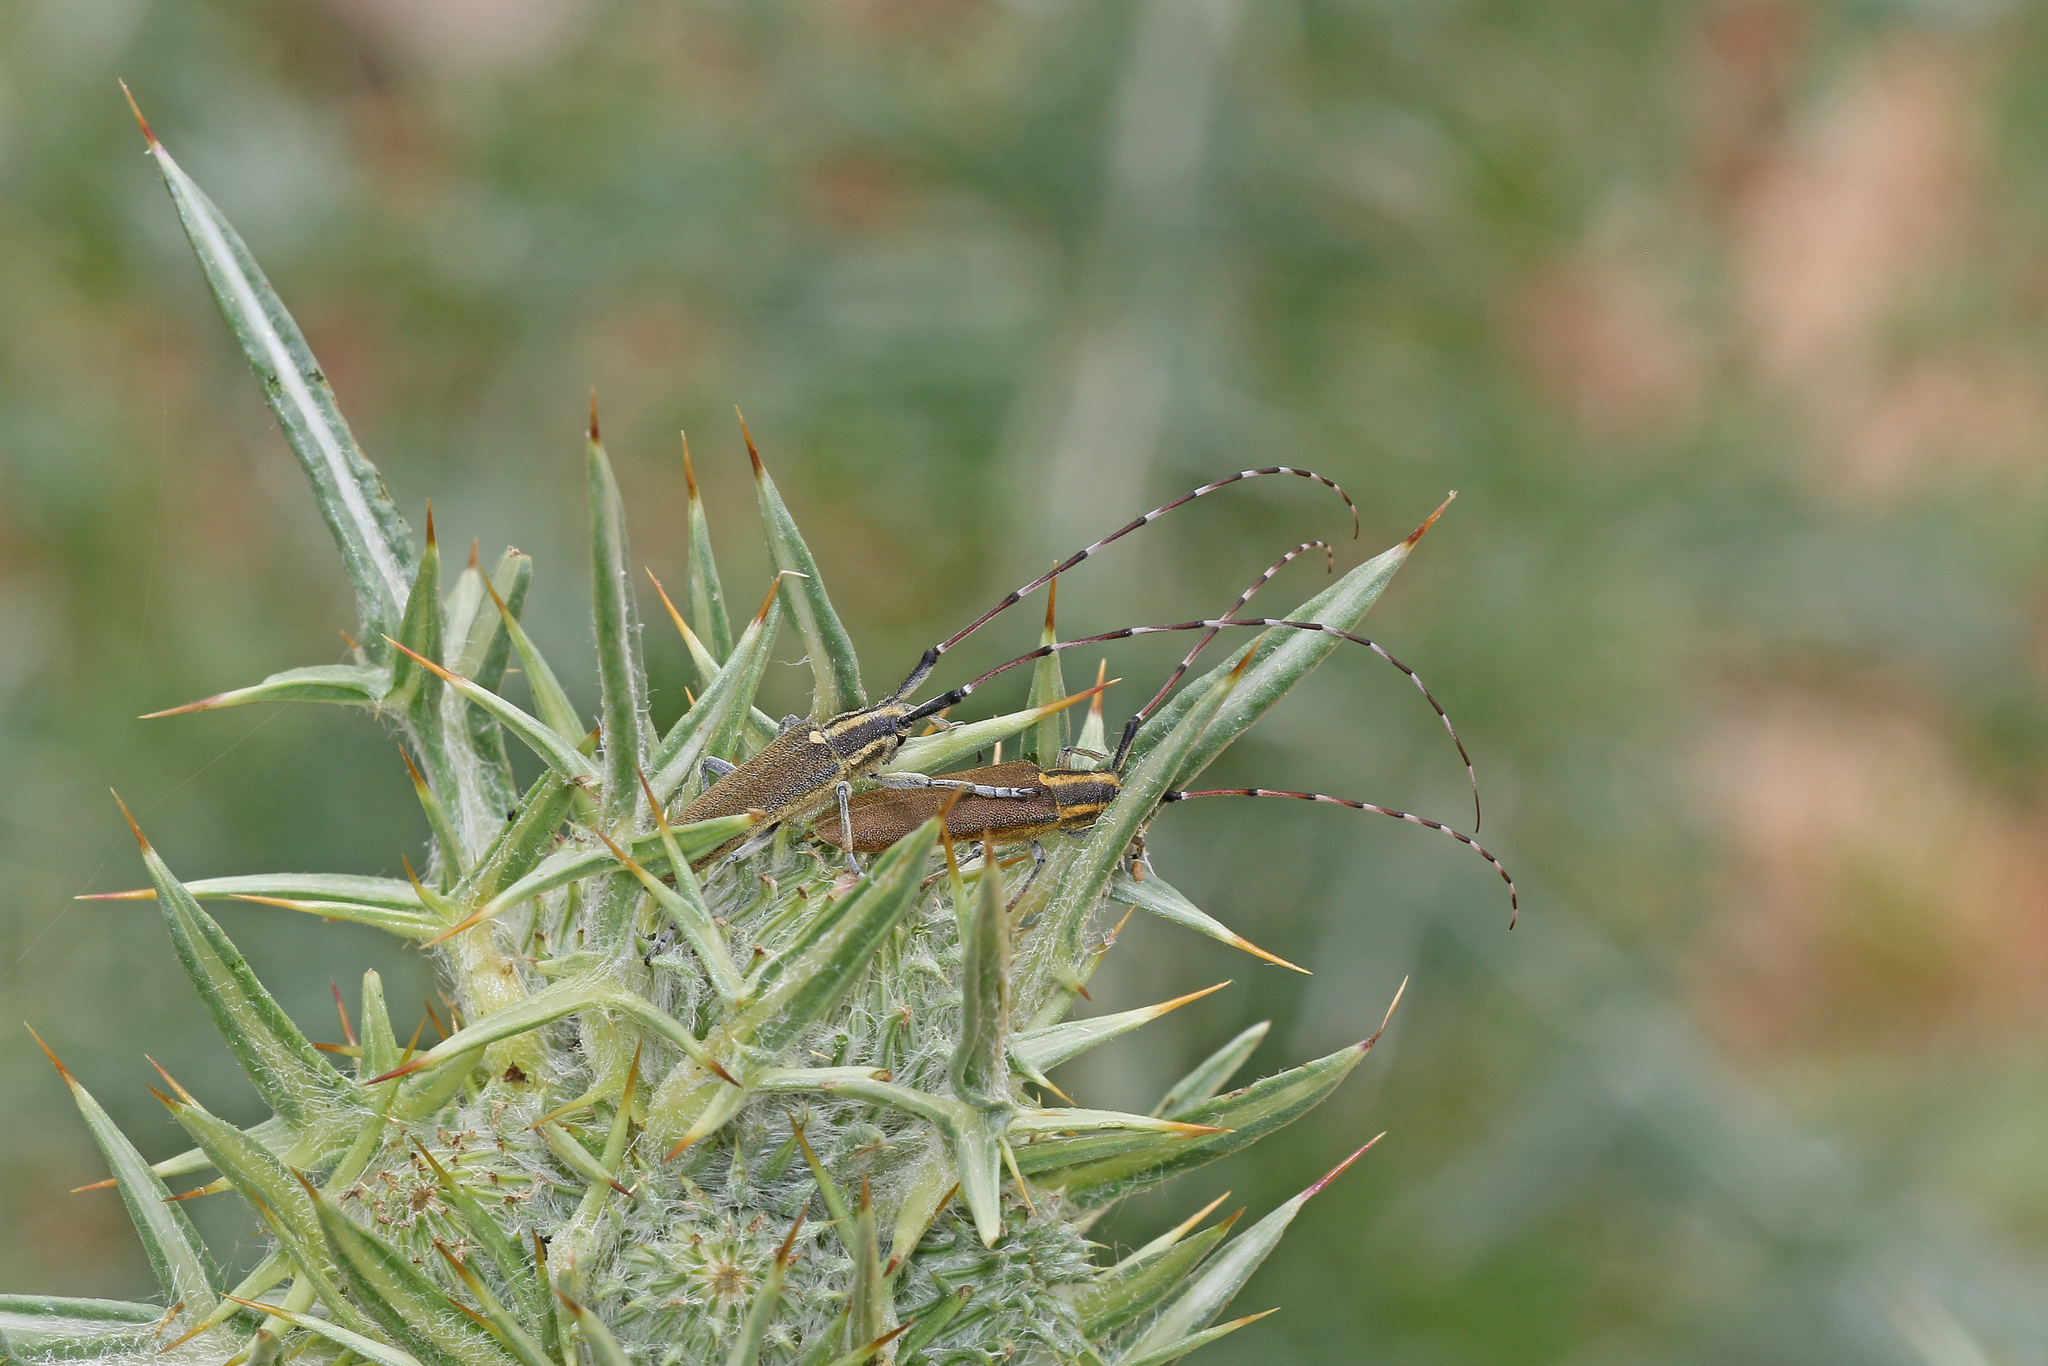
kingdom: Animalia
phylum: Arthropoda
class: Insecta
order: Coleoptera
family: Cerambycidae
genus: Agapanthia
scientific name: Agapanthia asphodeli
